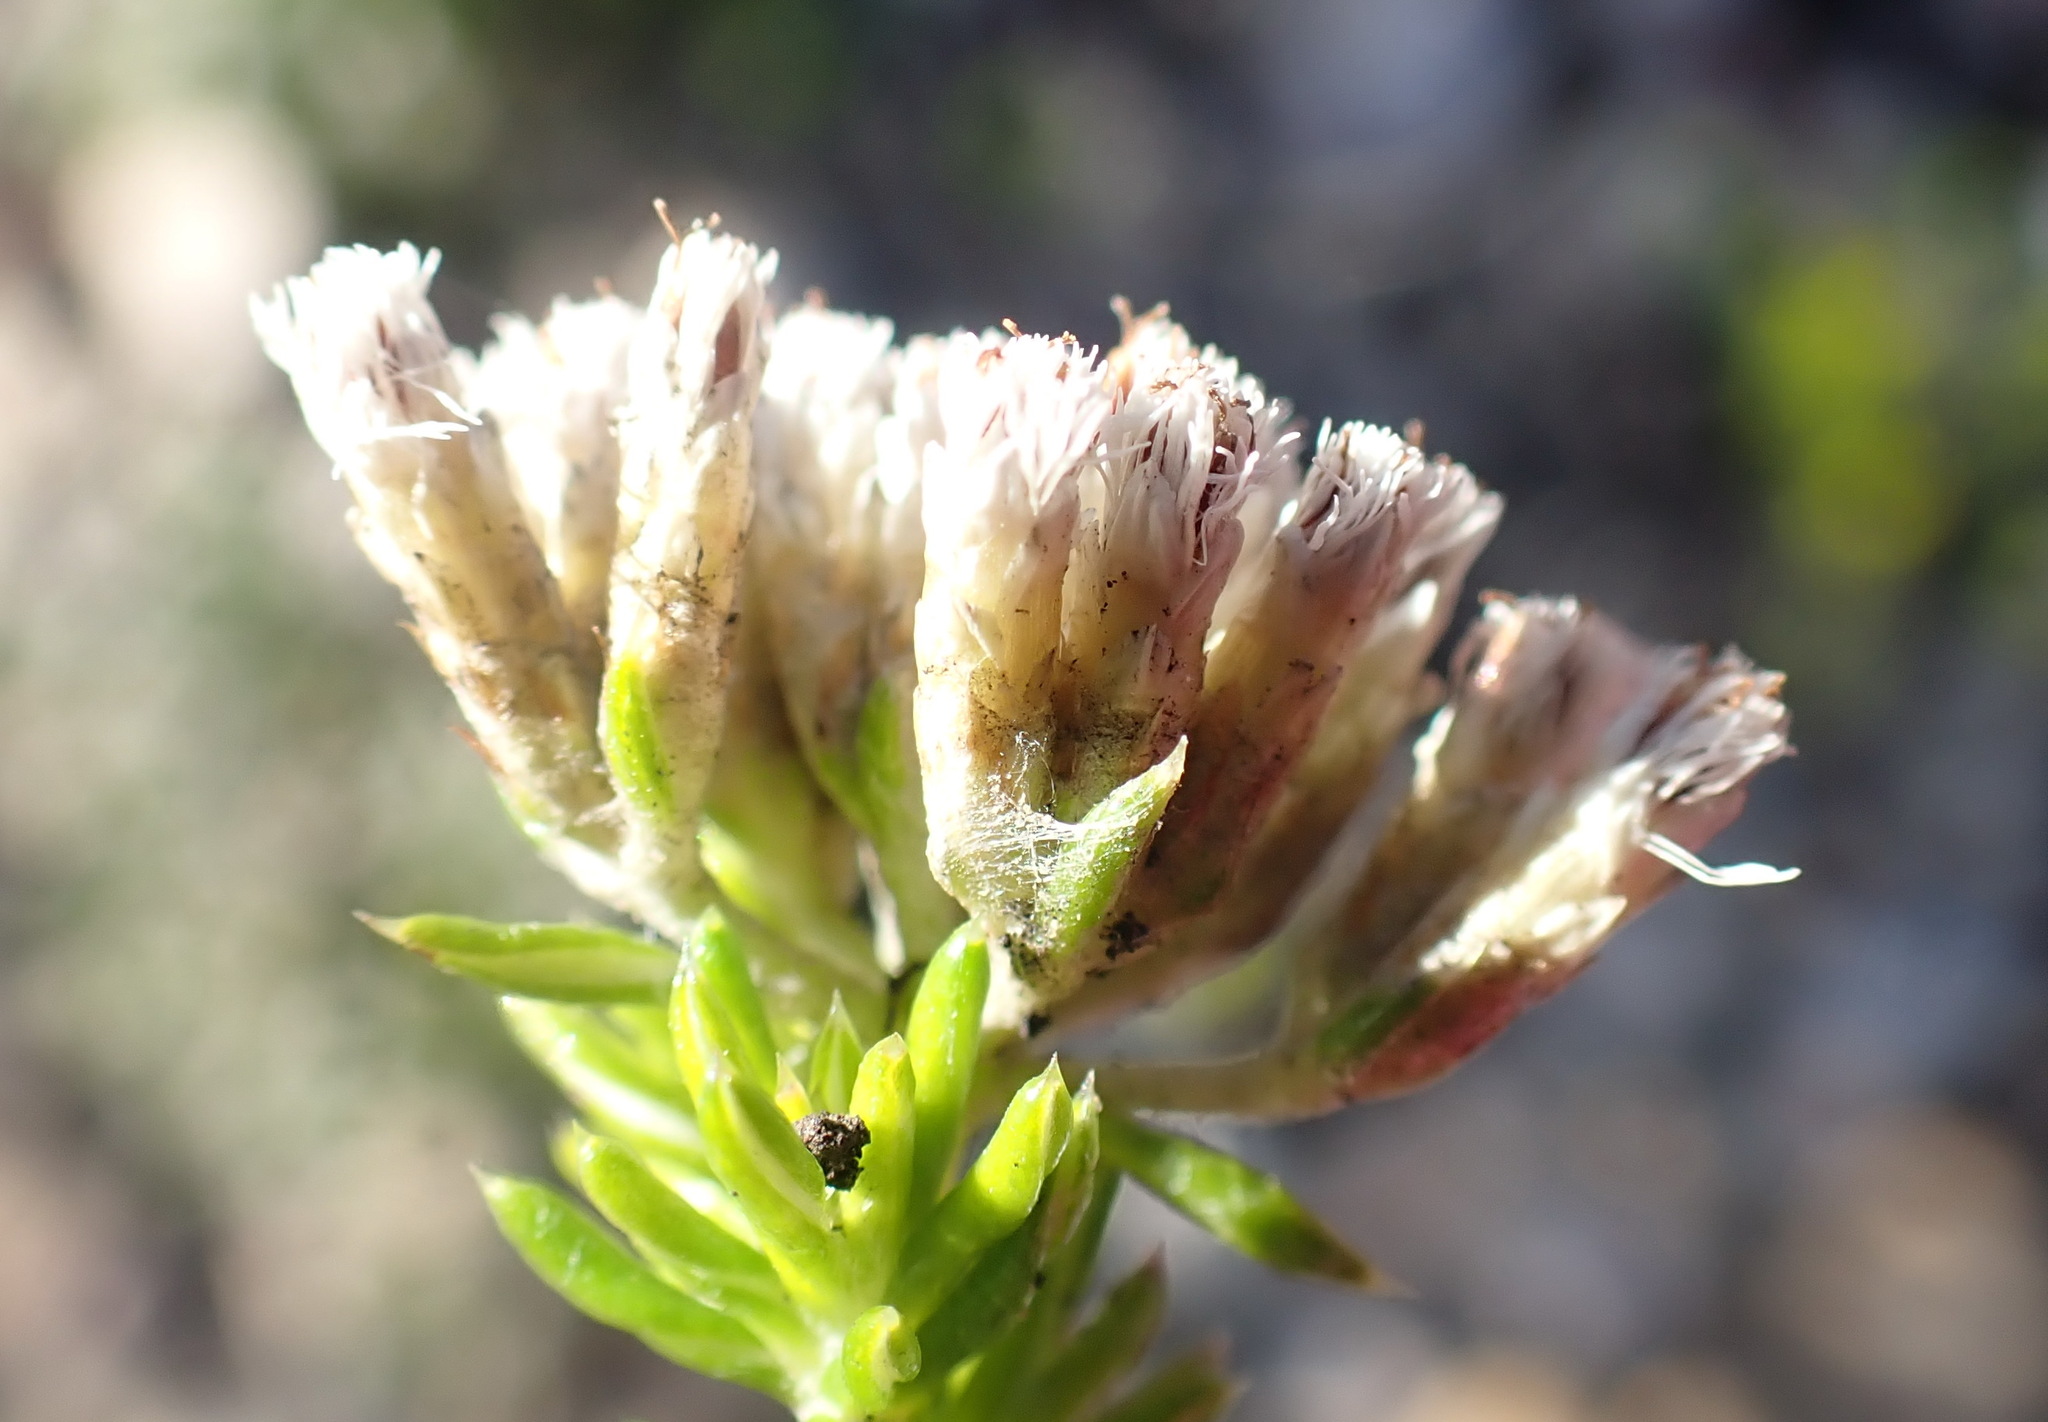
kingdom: Plantae
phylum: Tracheophyta
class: Magnoliopsida
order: Asterales
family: Asteraceae
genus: Metalasia
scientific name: Metalasia muricata
